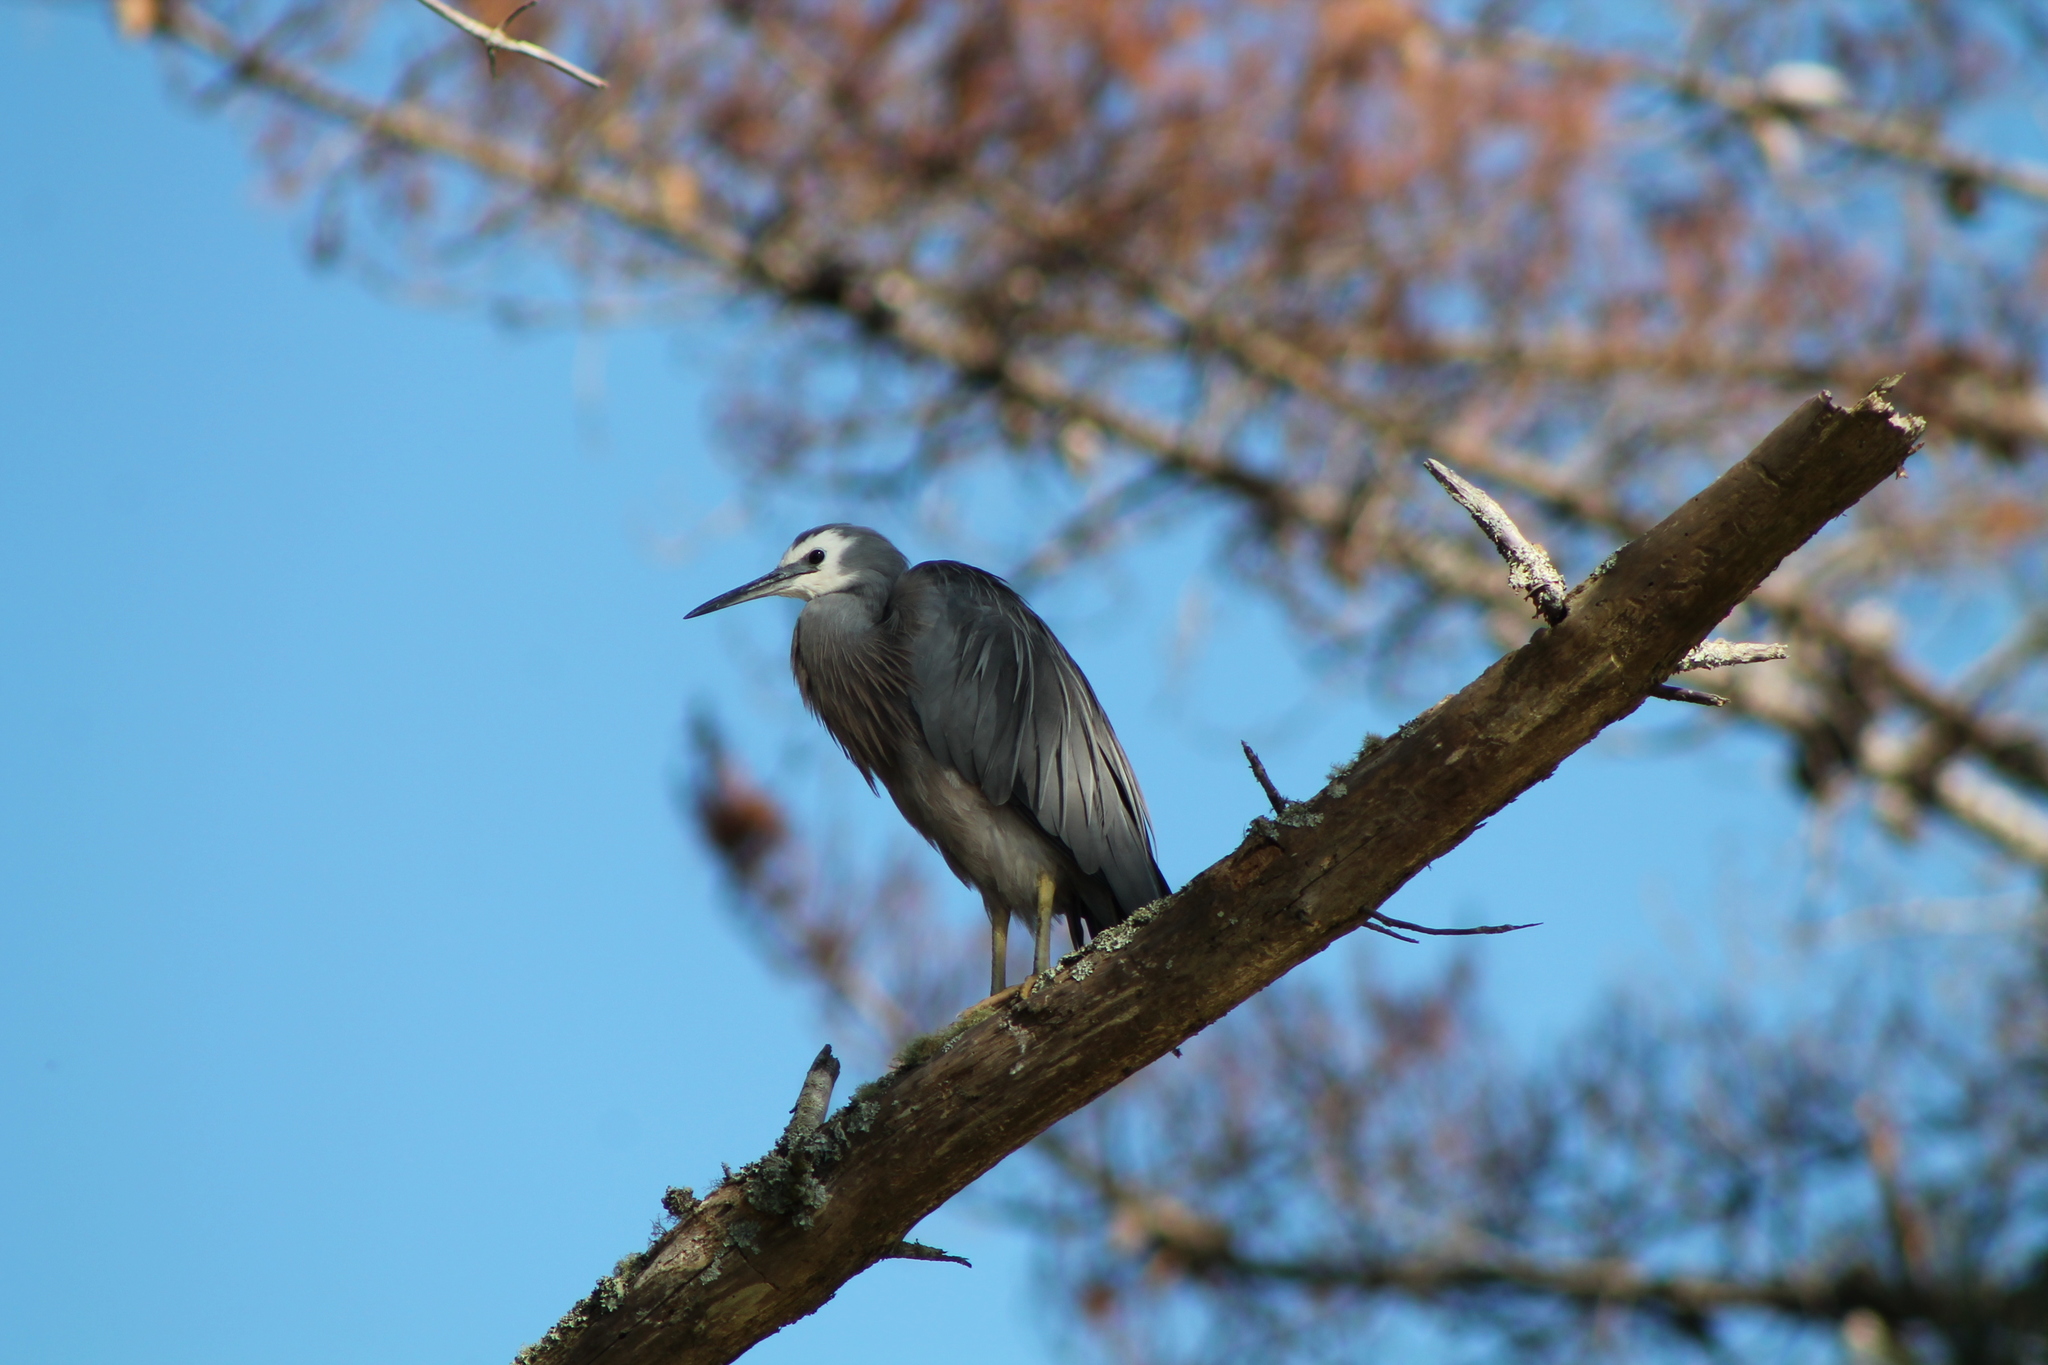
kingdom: Animalia
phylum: Chordata
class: Aves
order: Pelecaniformes
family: Ardeidae
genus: Egretta
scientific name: Egretta novaehollandiae
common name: White-faced heron
